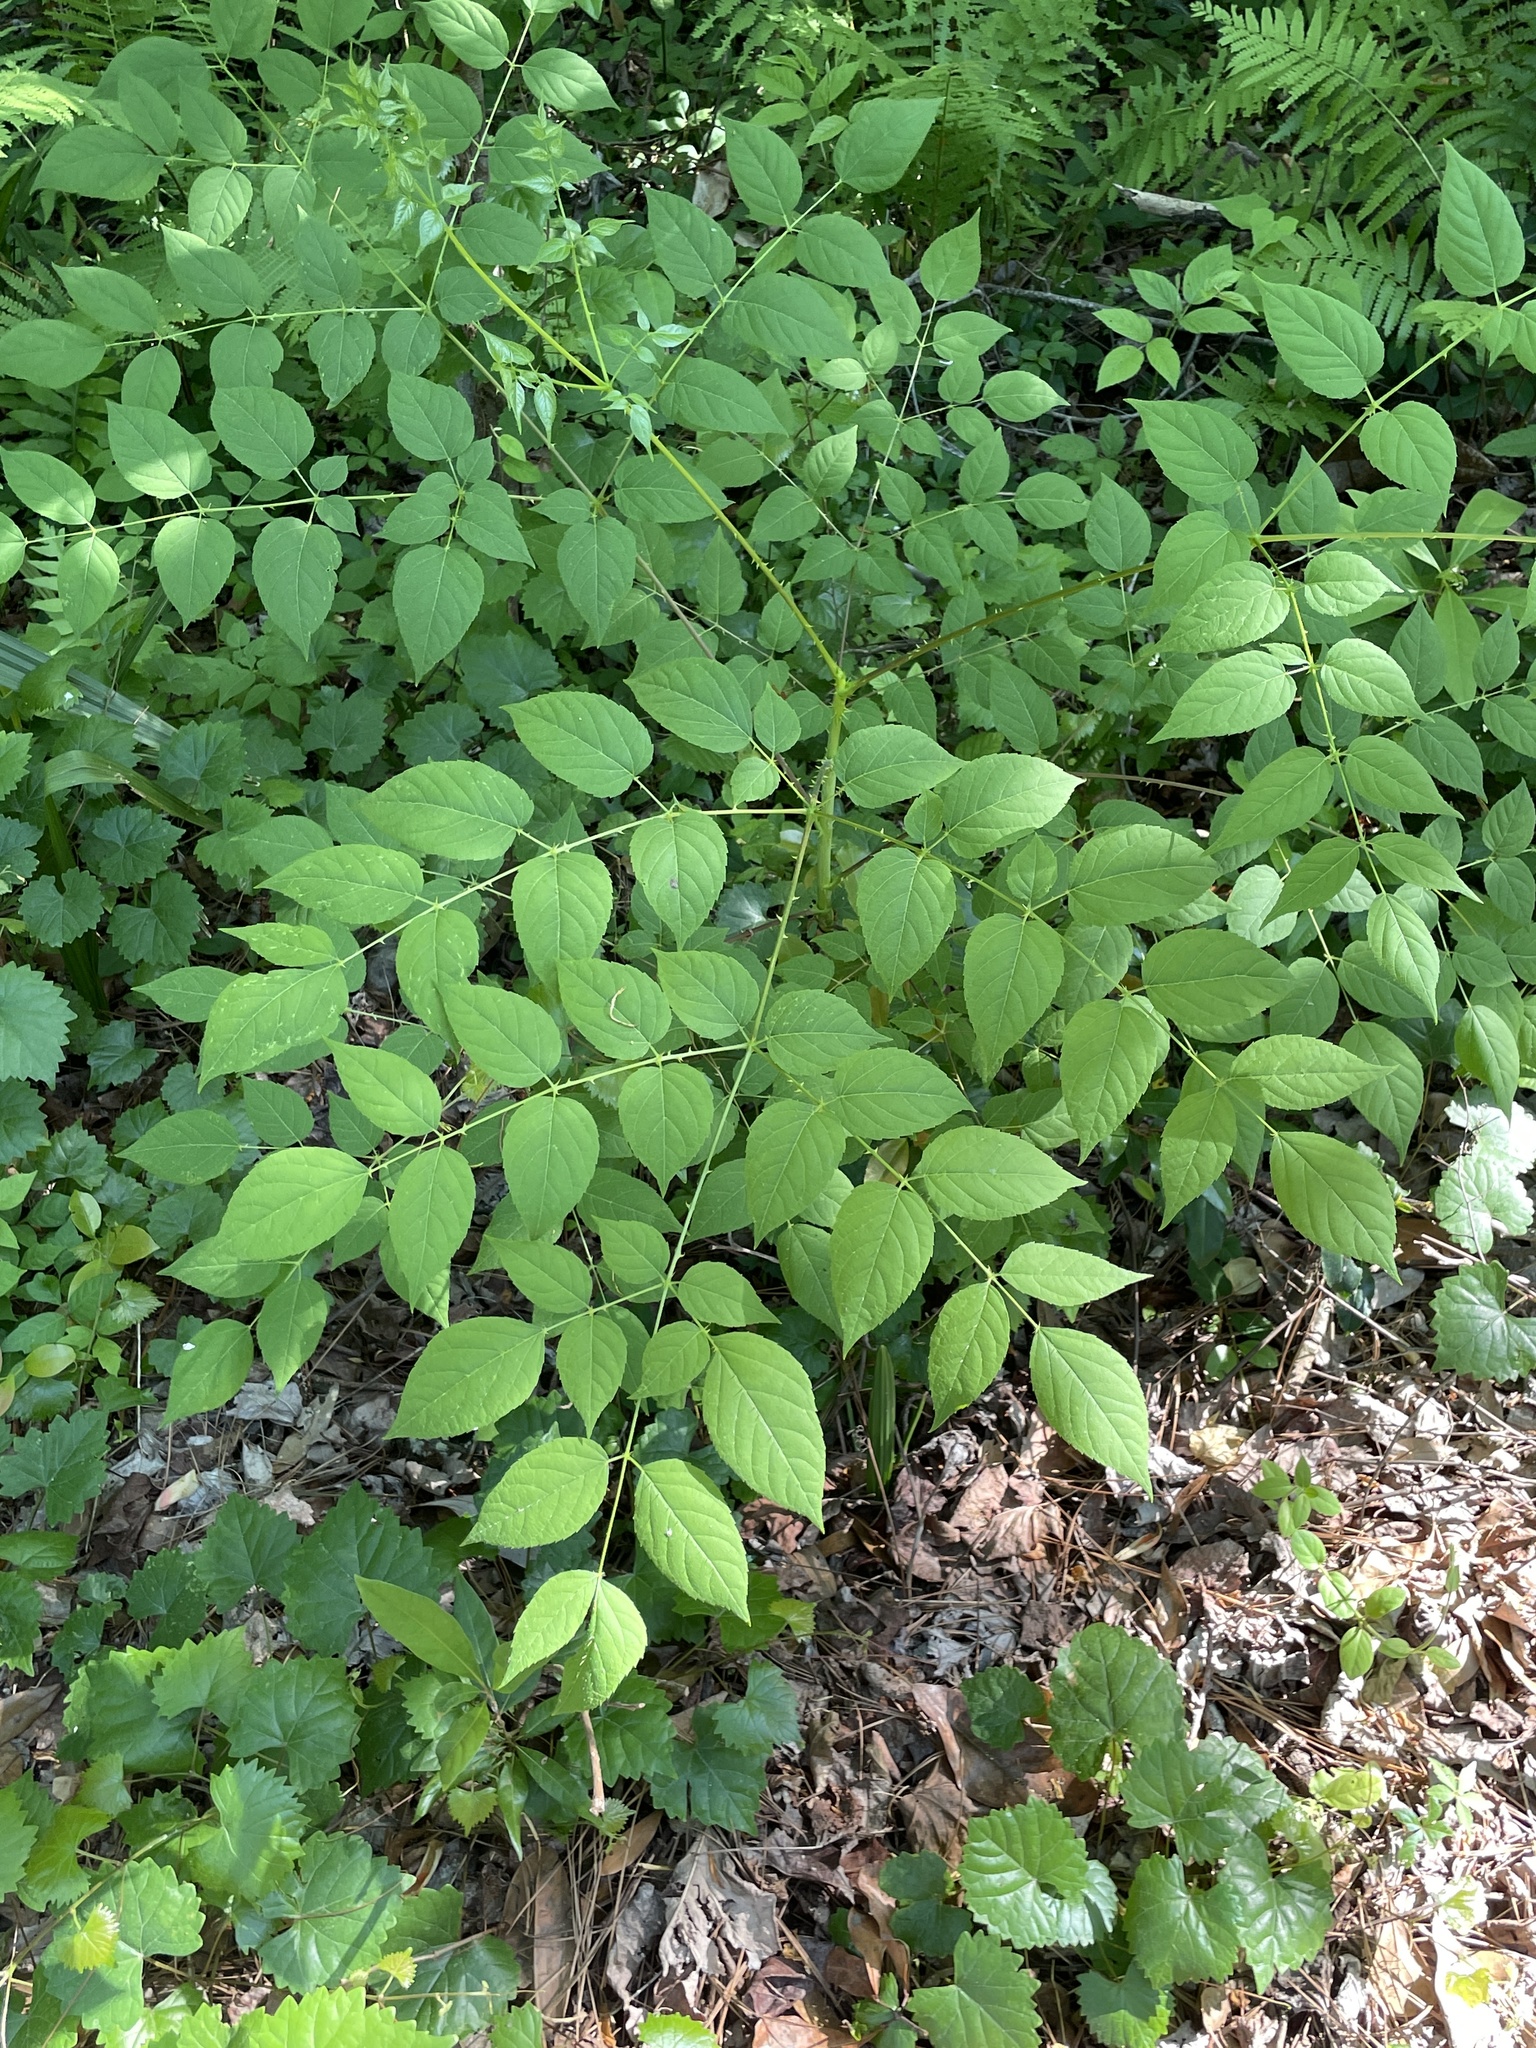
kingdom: Plantae
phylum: Tracheophyta
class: Magnoliopsida
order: Apiales
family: Araliaceae
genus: Aralia
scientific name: Aralia spinosa
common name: Hercules'-club
